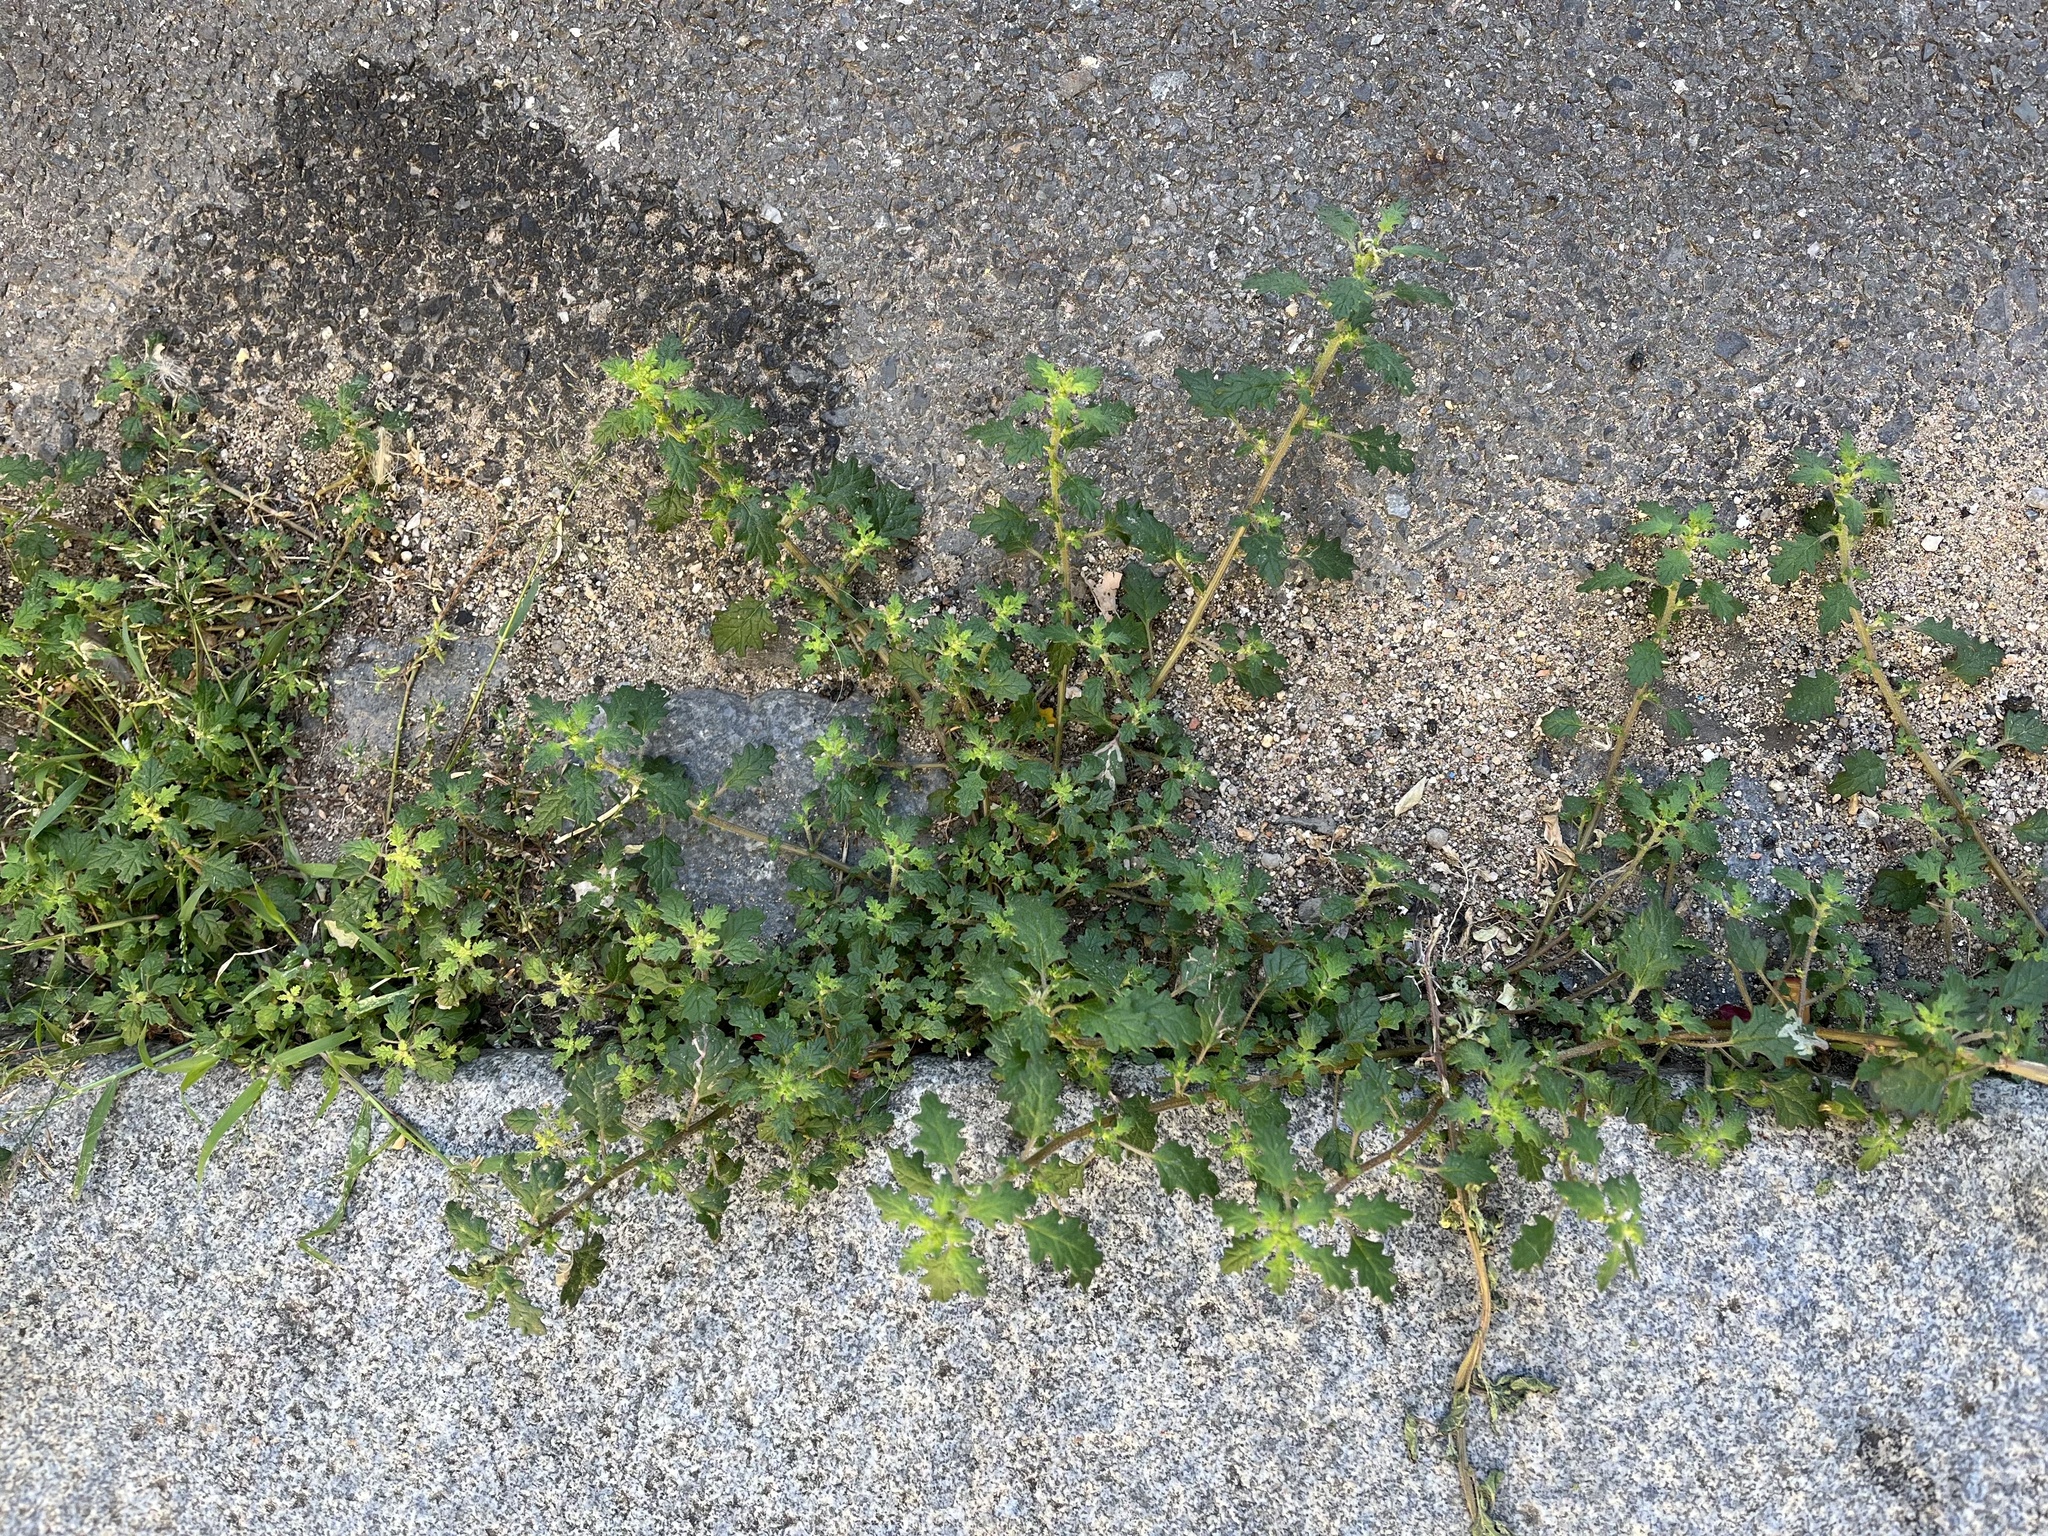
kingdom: Plantae
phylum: Tracheophyta
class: Magnoliopsida
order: Caryophyllales
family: Amaranthaceae
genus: Dysphania
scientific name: Dysphania pumilio
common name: Clammy goosefoot
